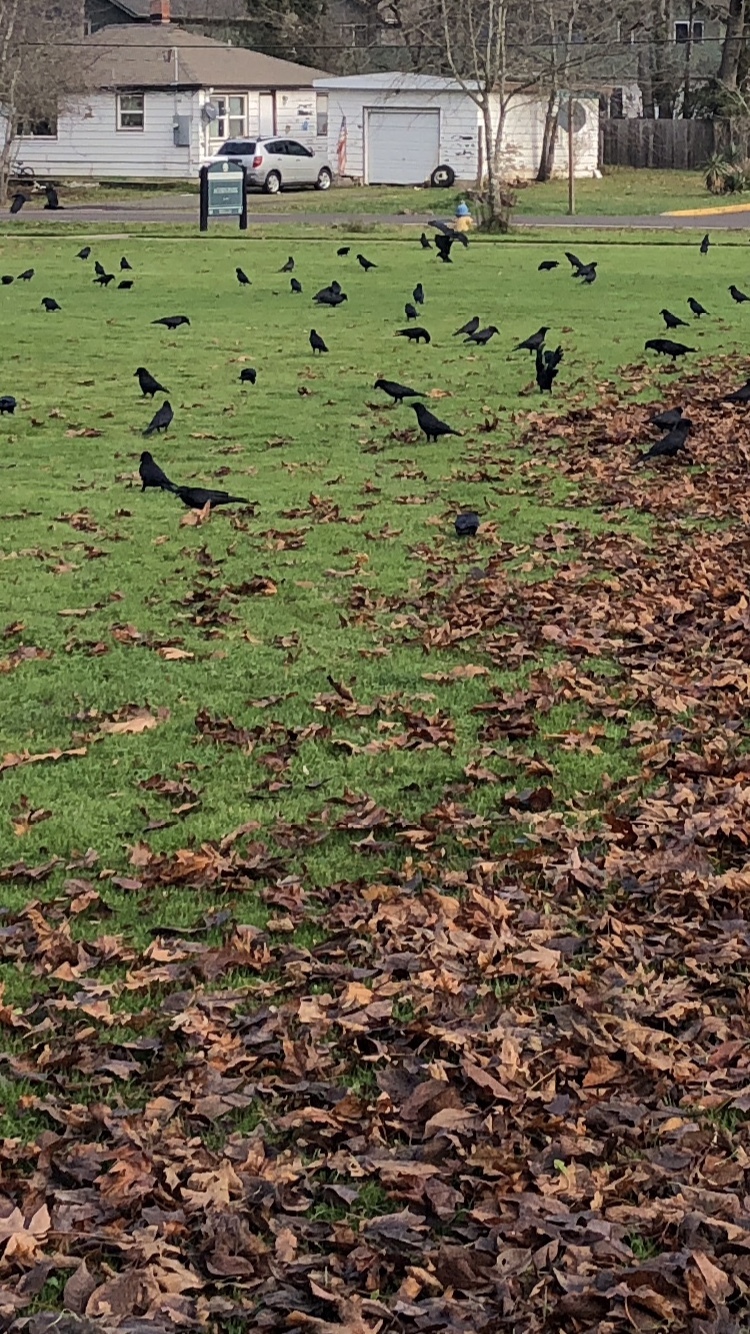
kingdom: Animalia
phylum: Chordata
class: Aves
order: Passeriformes
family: Corvidae
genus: Corvus
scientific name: Corvus brachyrhynchos
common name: American crow
